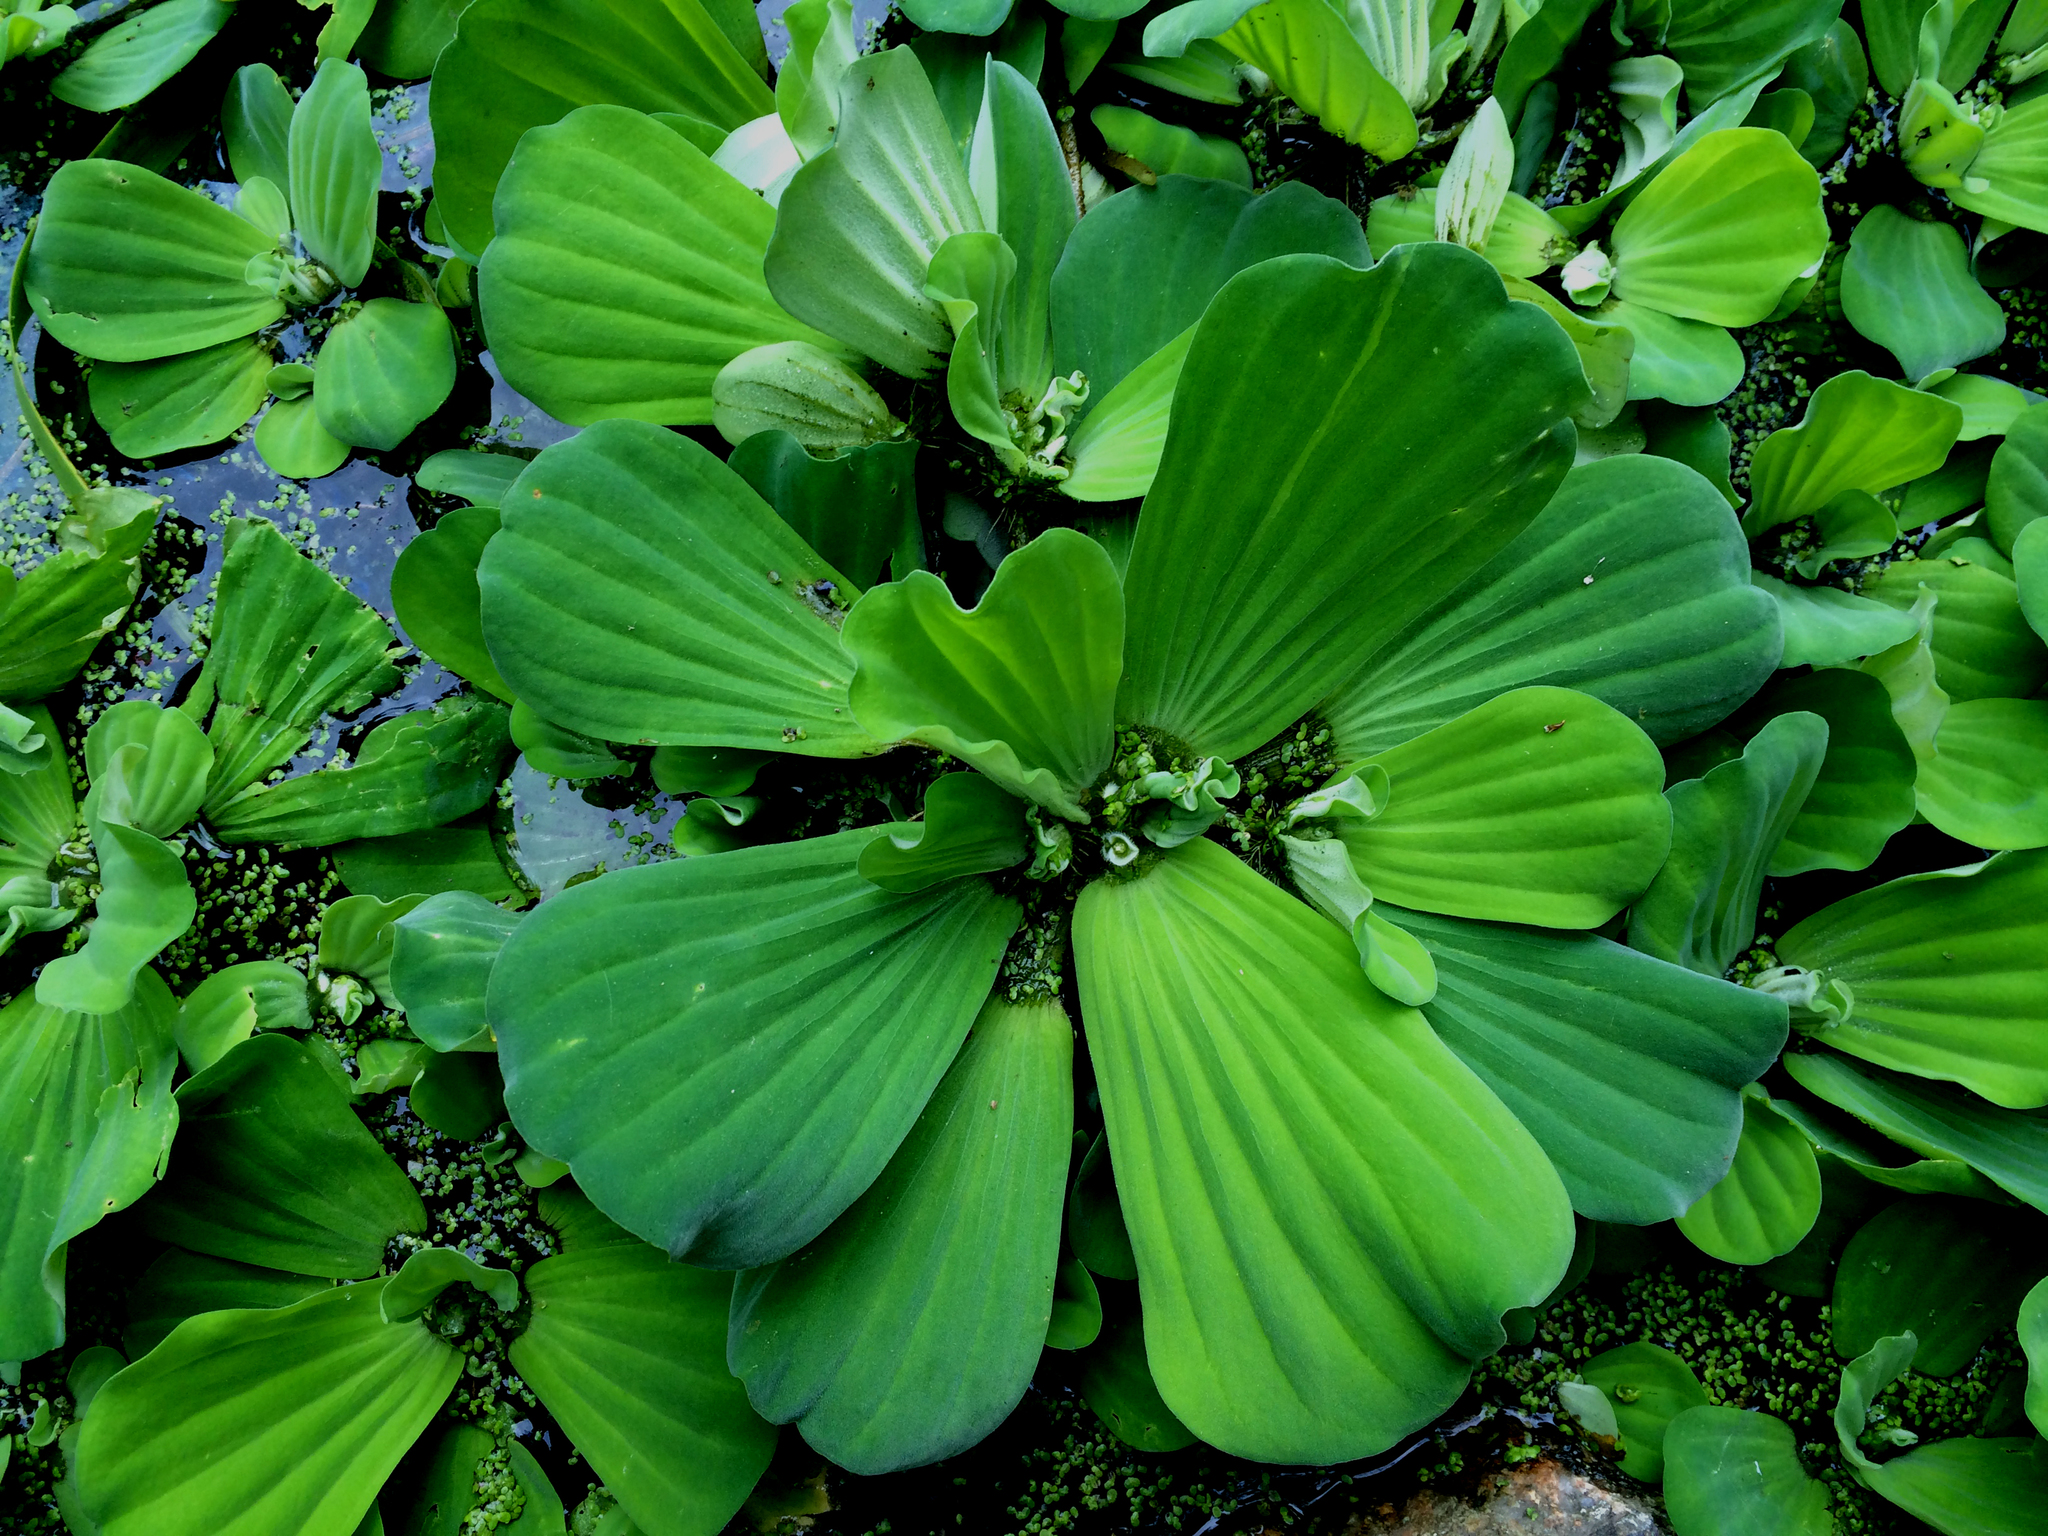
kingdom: Plantae
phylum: Tracheophyta
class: Liliopsida
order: Alismatales
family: Araceae
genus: Pistia
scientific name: Pistia stratiotes
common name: Water lettuce
